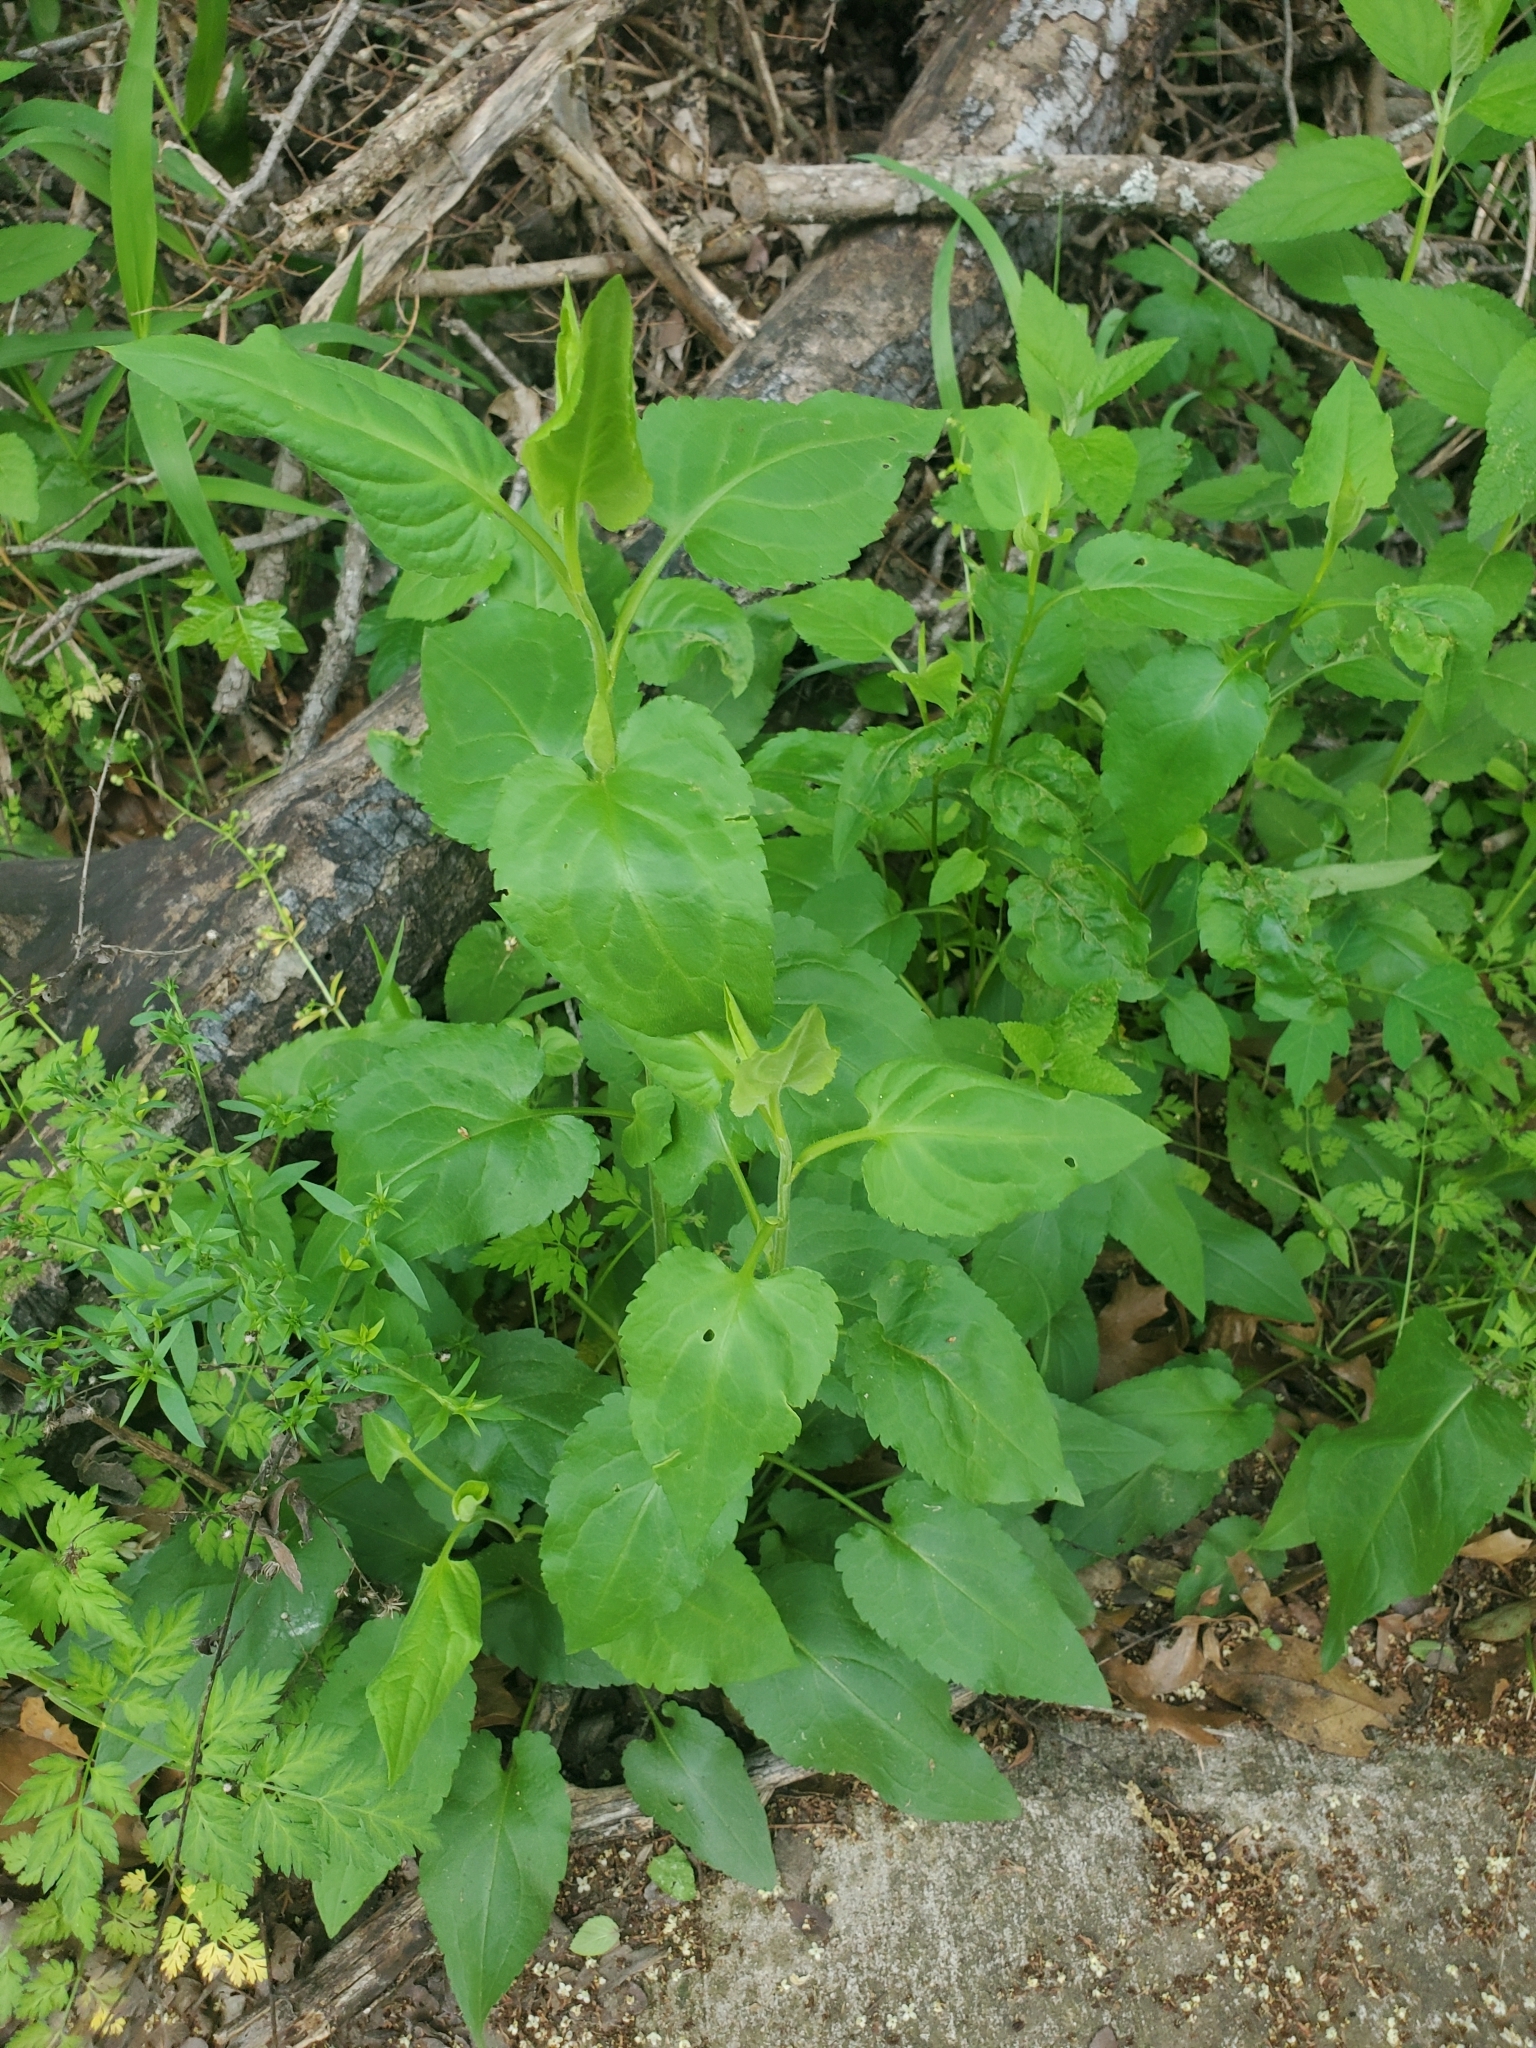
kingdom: Plantae
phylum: Tracheophyta
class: Magnoliopsida
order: Asterales
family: Asteraceae
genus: Symphyotrichum
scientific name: Symphyotrichum drummondii
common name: Drummond's aster
